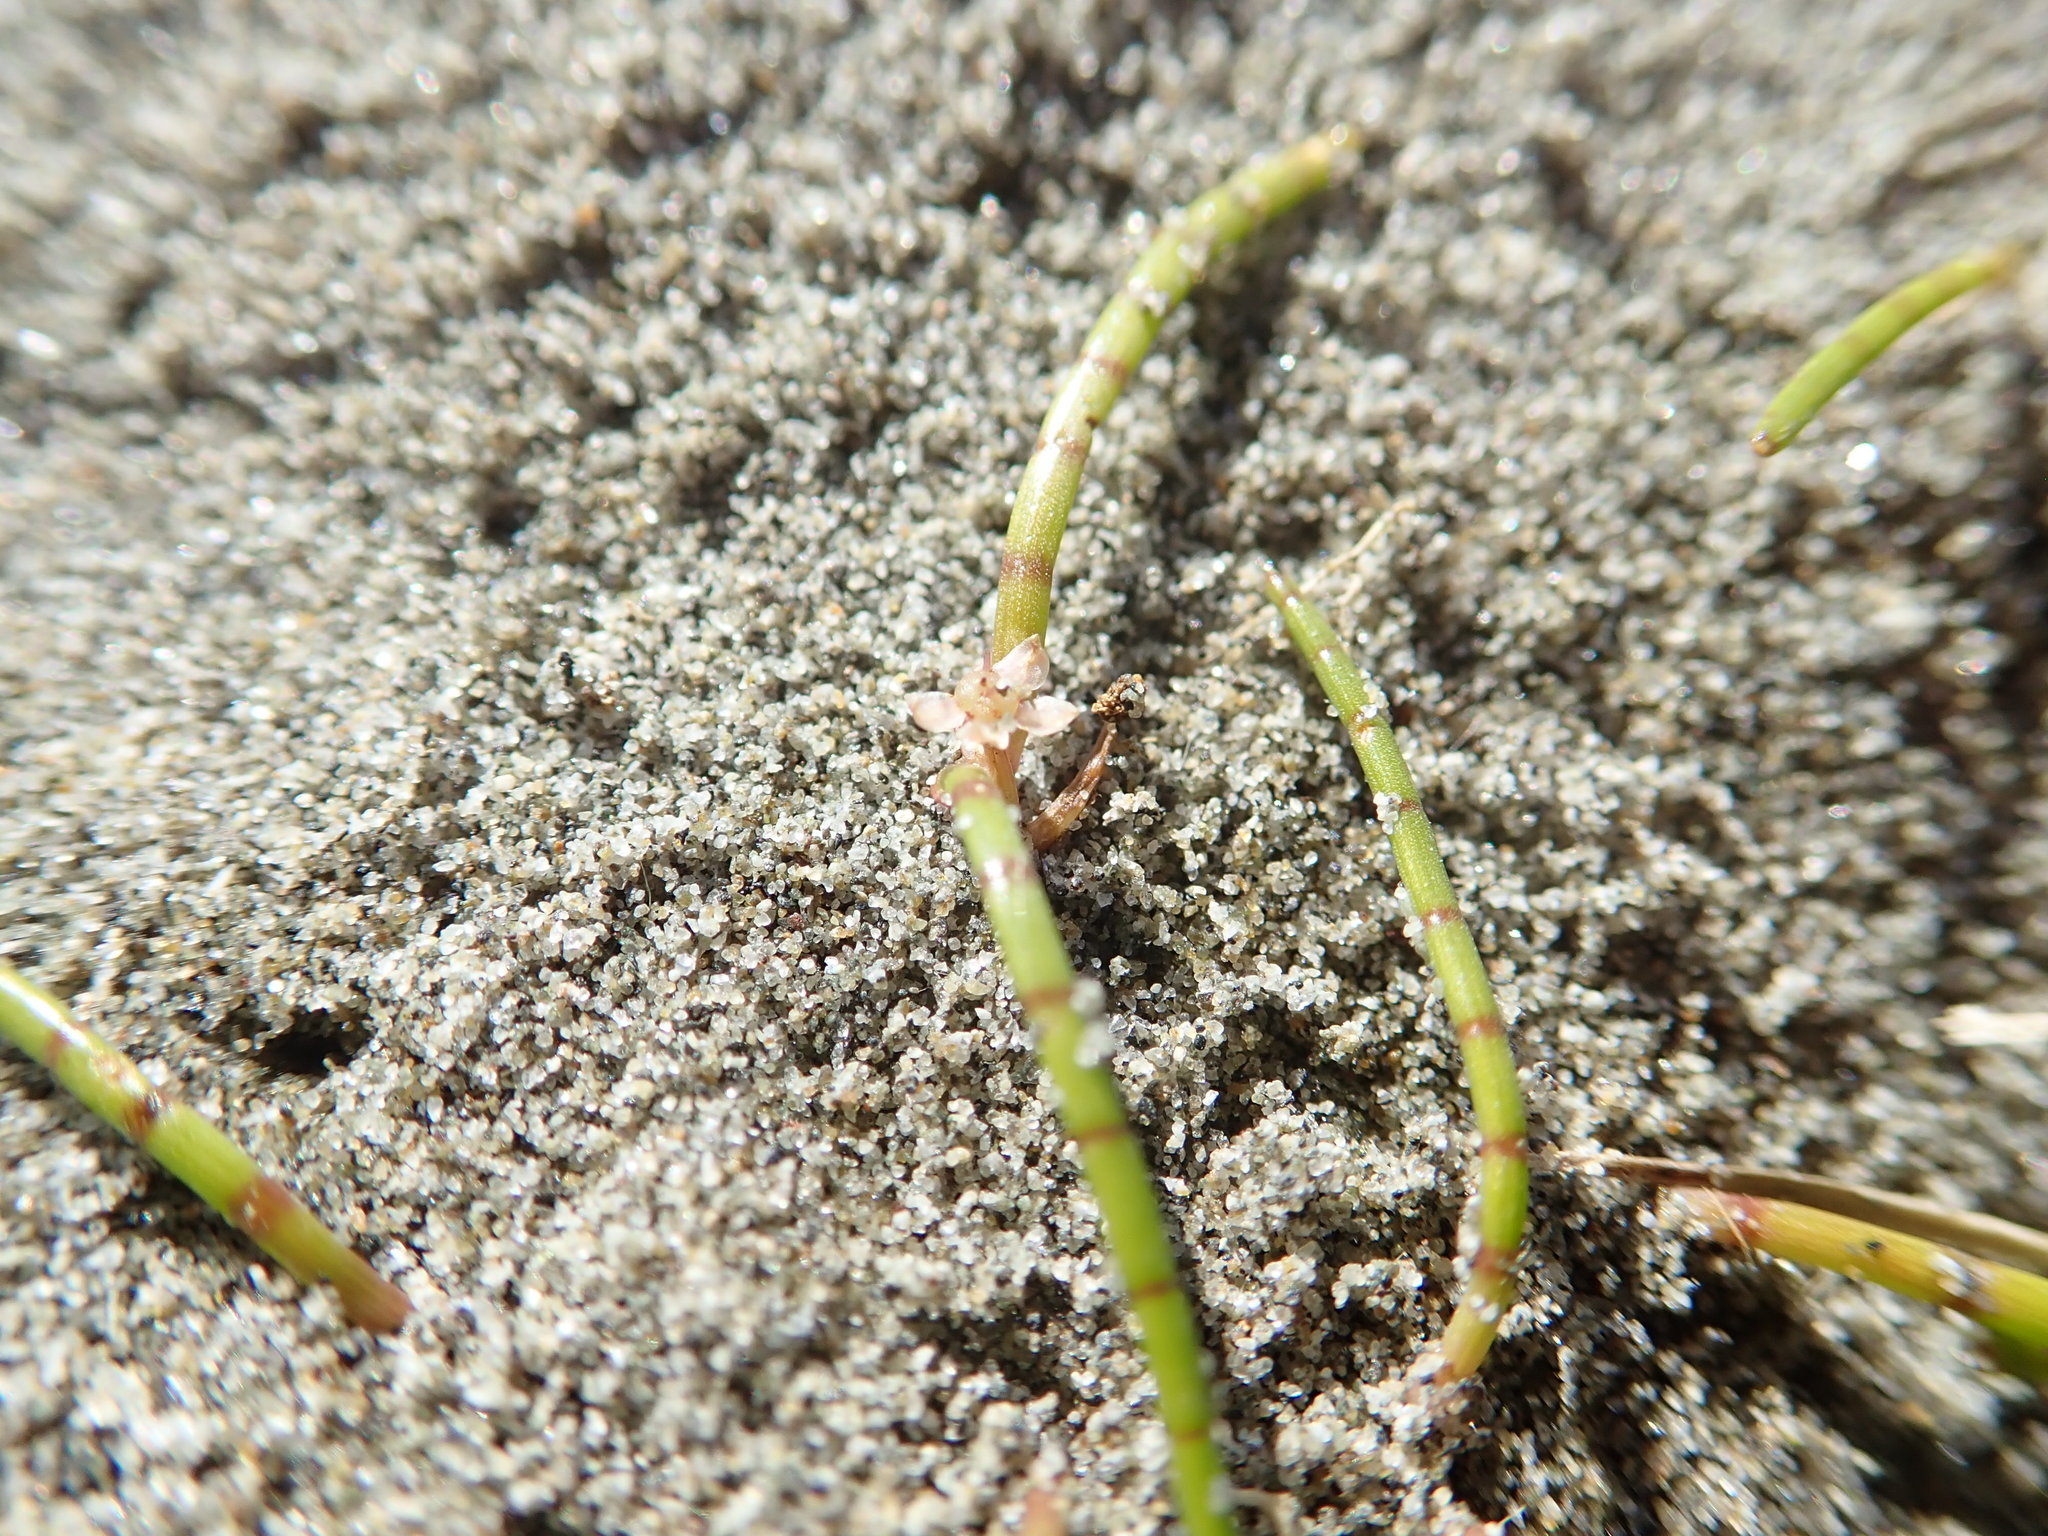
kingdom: Plantae
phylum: Tracheophyta
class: Magnoliopsida
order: Apiales
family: Apiaceae
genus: Lilaeopsis
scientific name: Lilaeopsis novae-zelandiae
